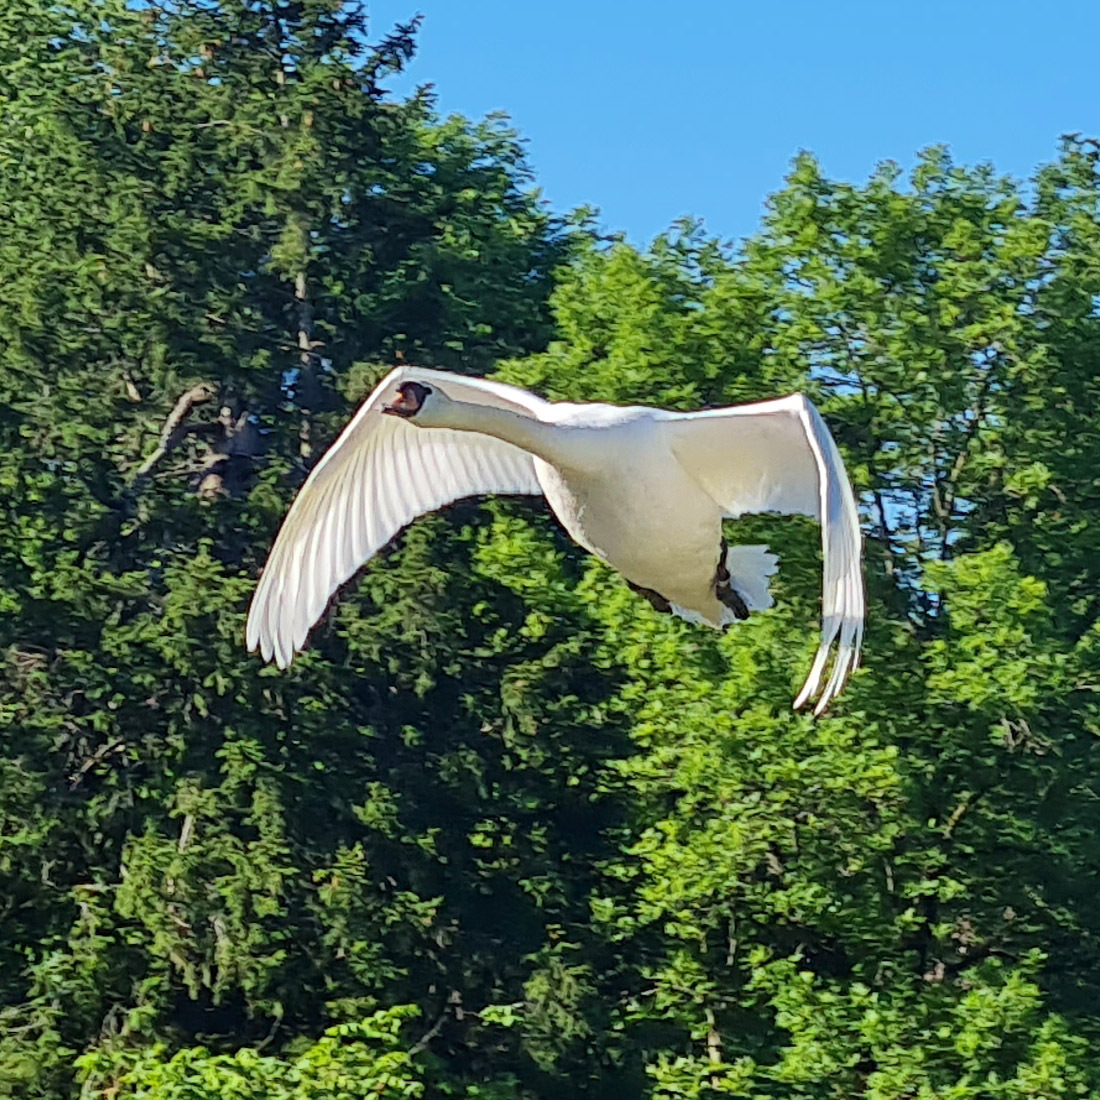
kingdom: Animalia
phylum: Chordata
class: Aves
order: Anseriformes
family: Anatidae
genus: Cygnus
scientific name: Cygnus olor
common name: Mute swan
